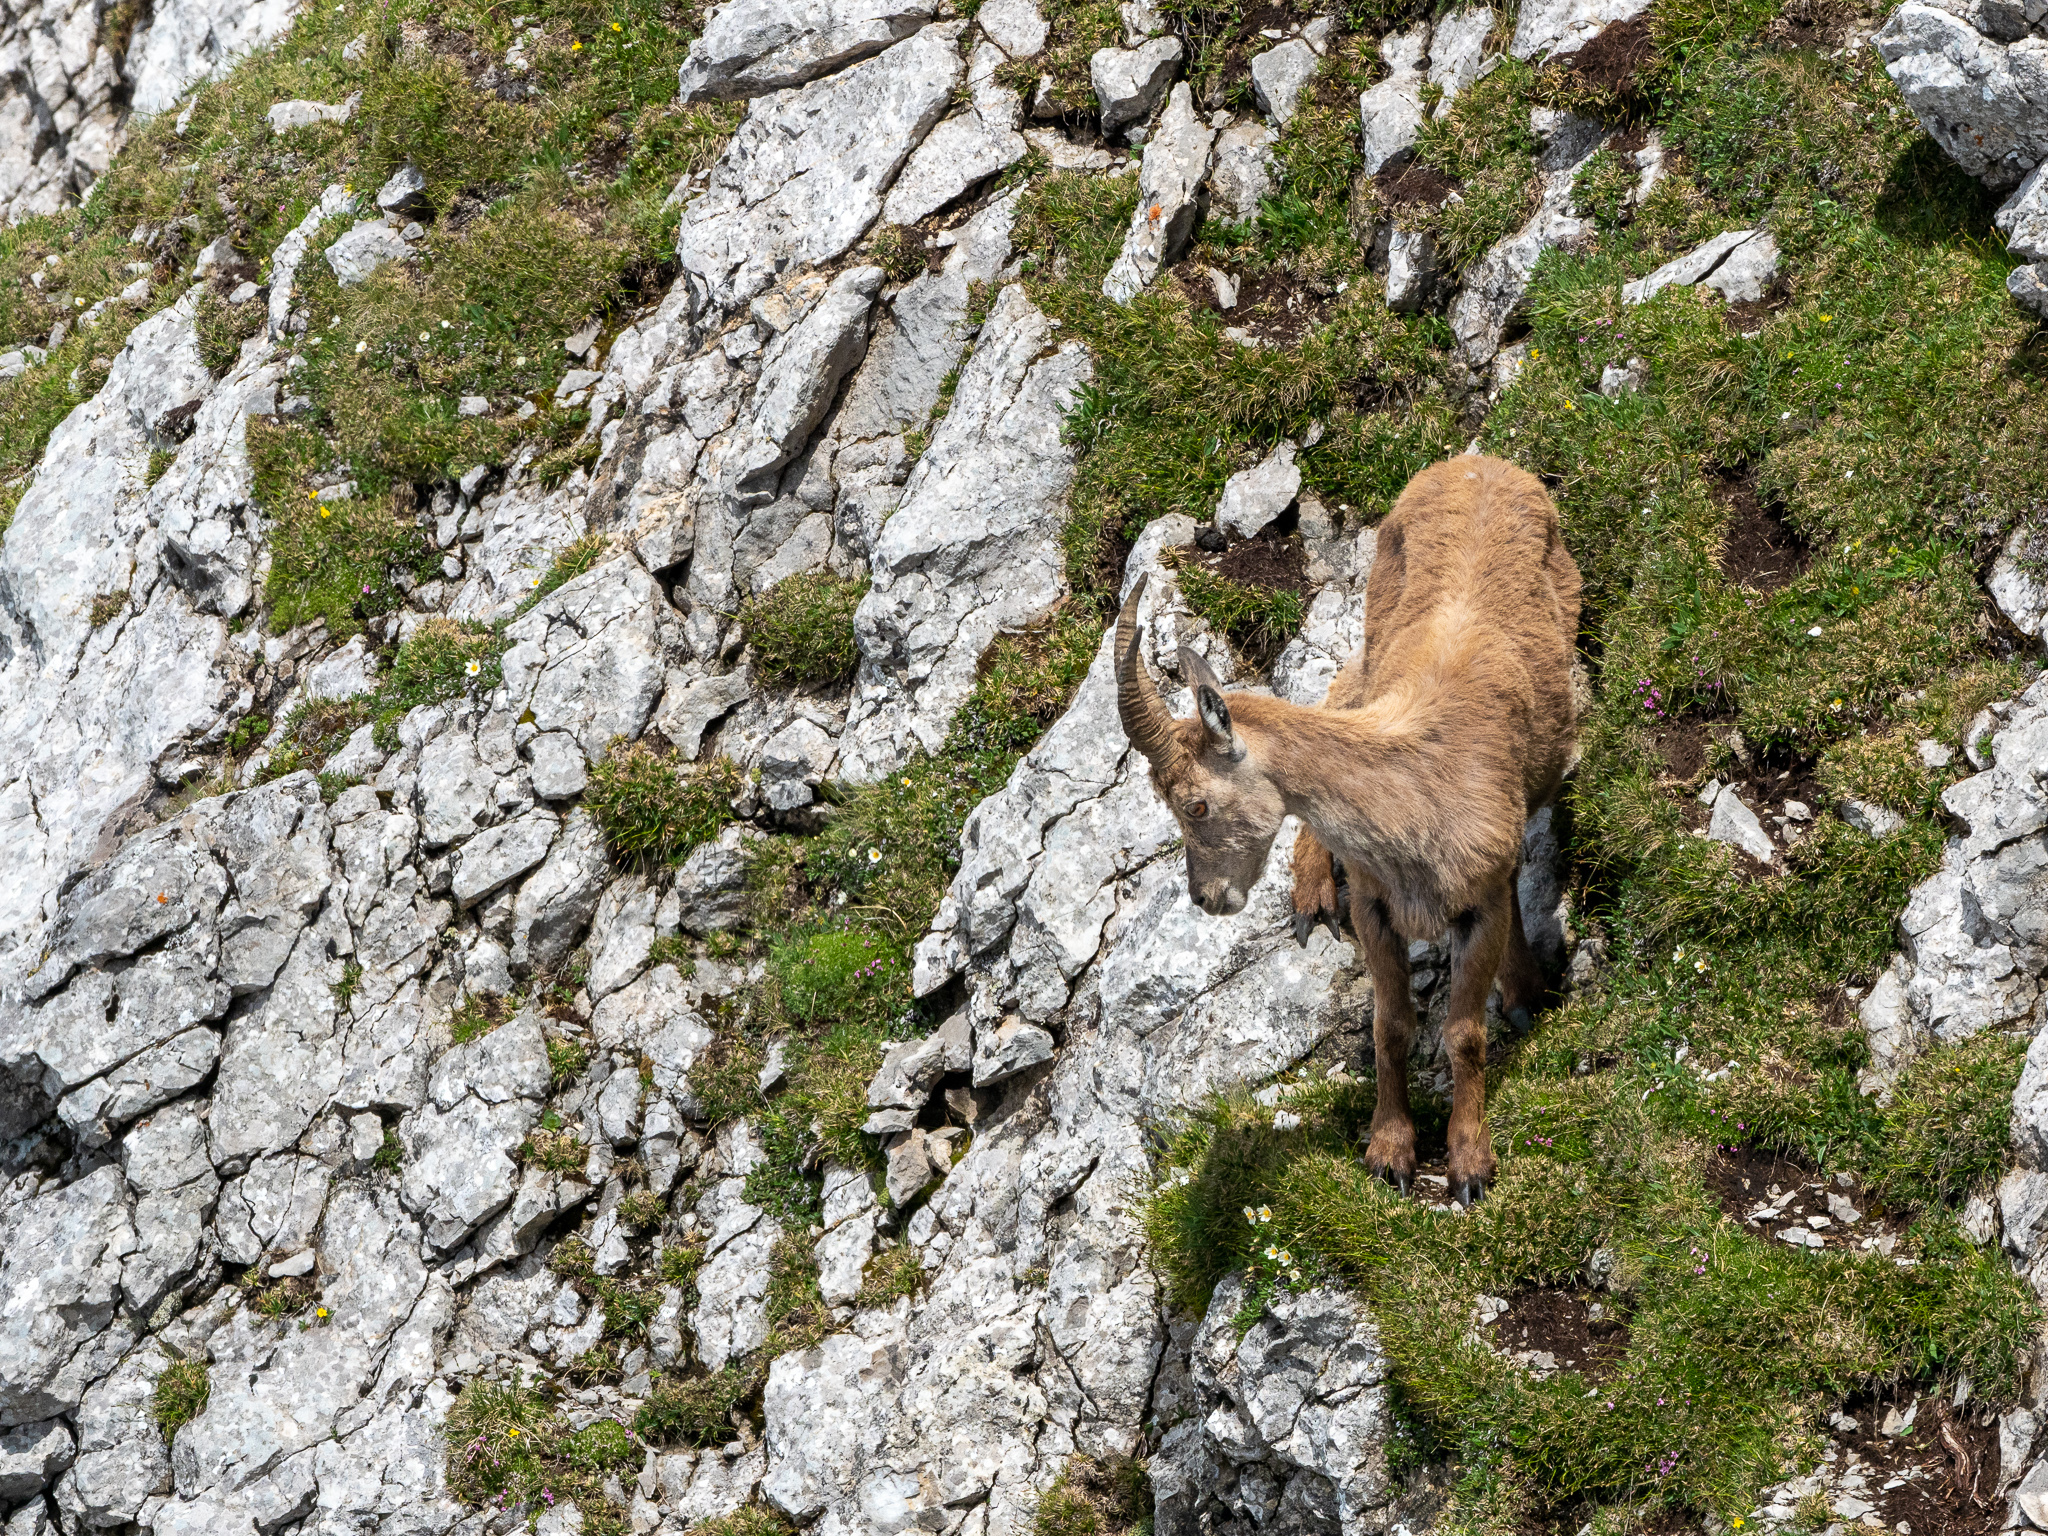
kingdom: Animalia
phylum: Chordata
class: Mammalia
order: Artiodactyla
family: Bovidae
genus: Capra
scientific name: Capra ibex
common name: Alpine ibex
